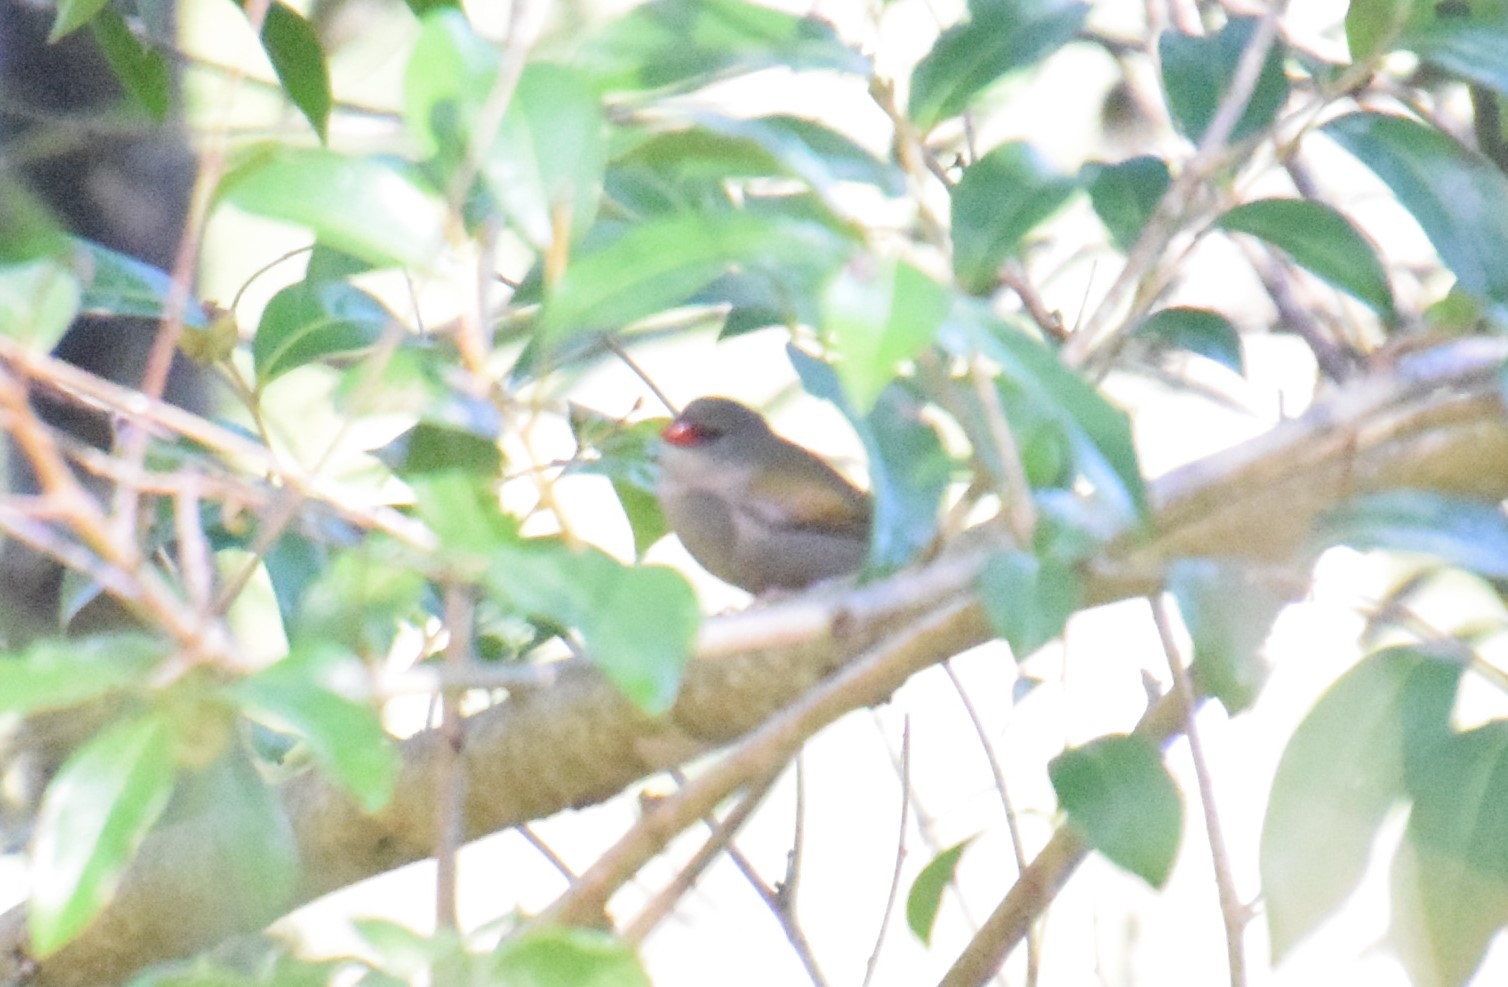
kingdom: Animalia
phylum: Chordata
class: Aves
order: Passeriformes
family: Estrildidae
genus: Neochmia
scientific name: Neochmia temporalis
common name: Red-browed finch
